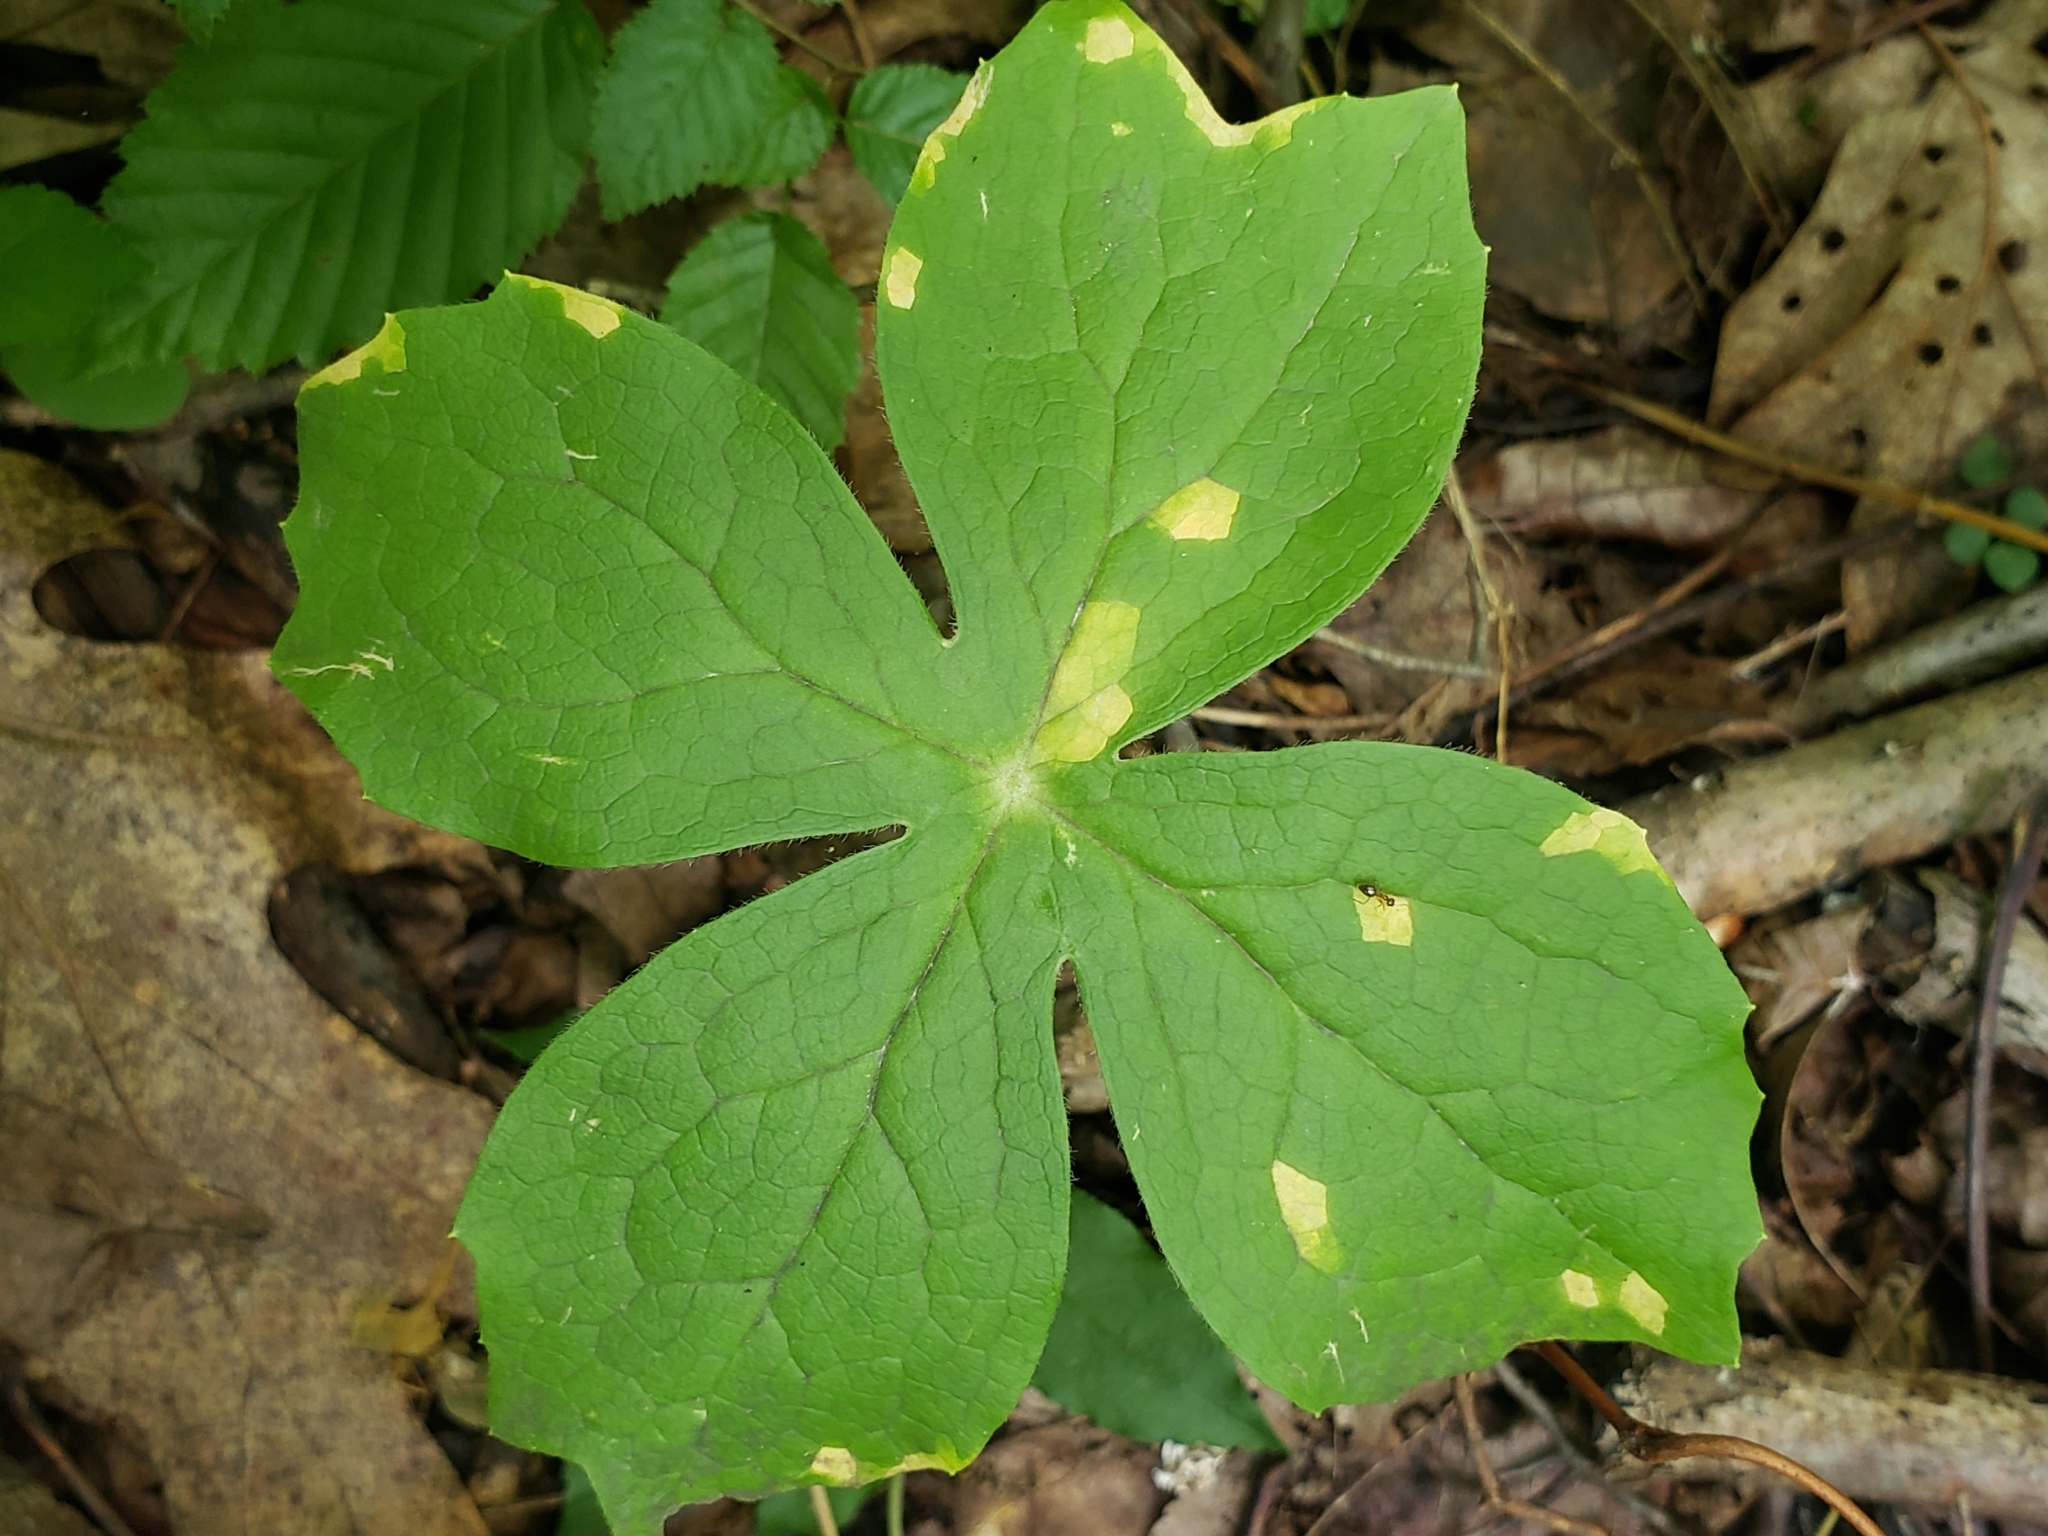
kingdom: Fungi
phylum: Basidiomycota
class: Pucciniomycetes
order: Pucciniales
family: Pucciniaceae
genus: Puccinia
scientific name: Puccinia podophylli
